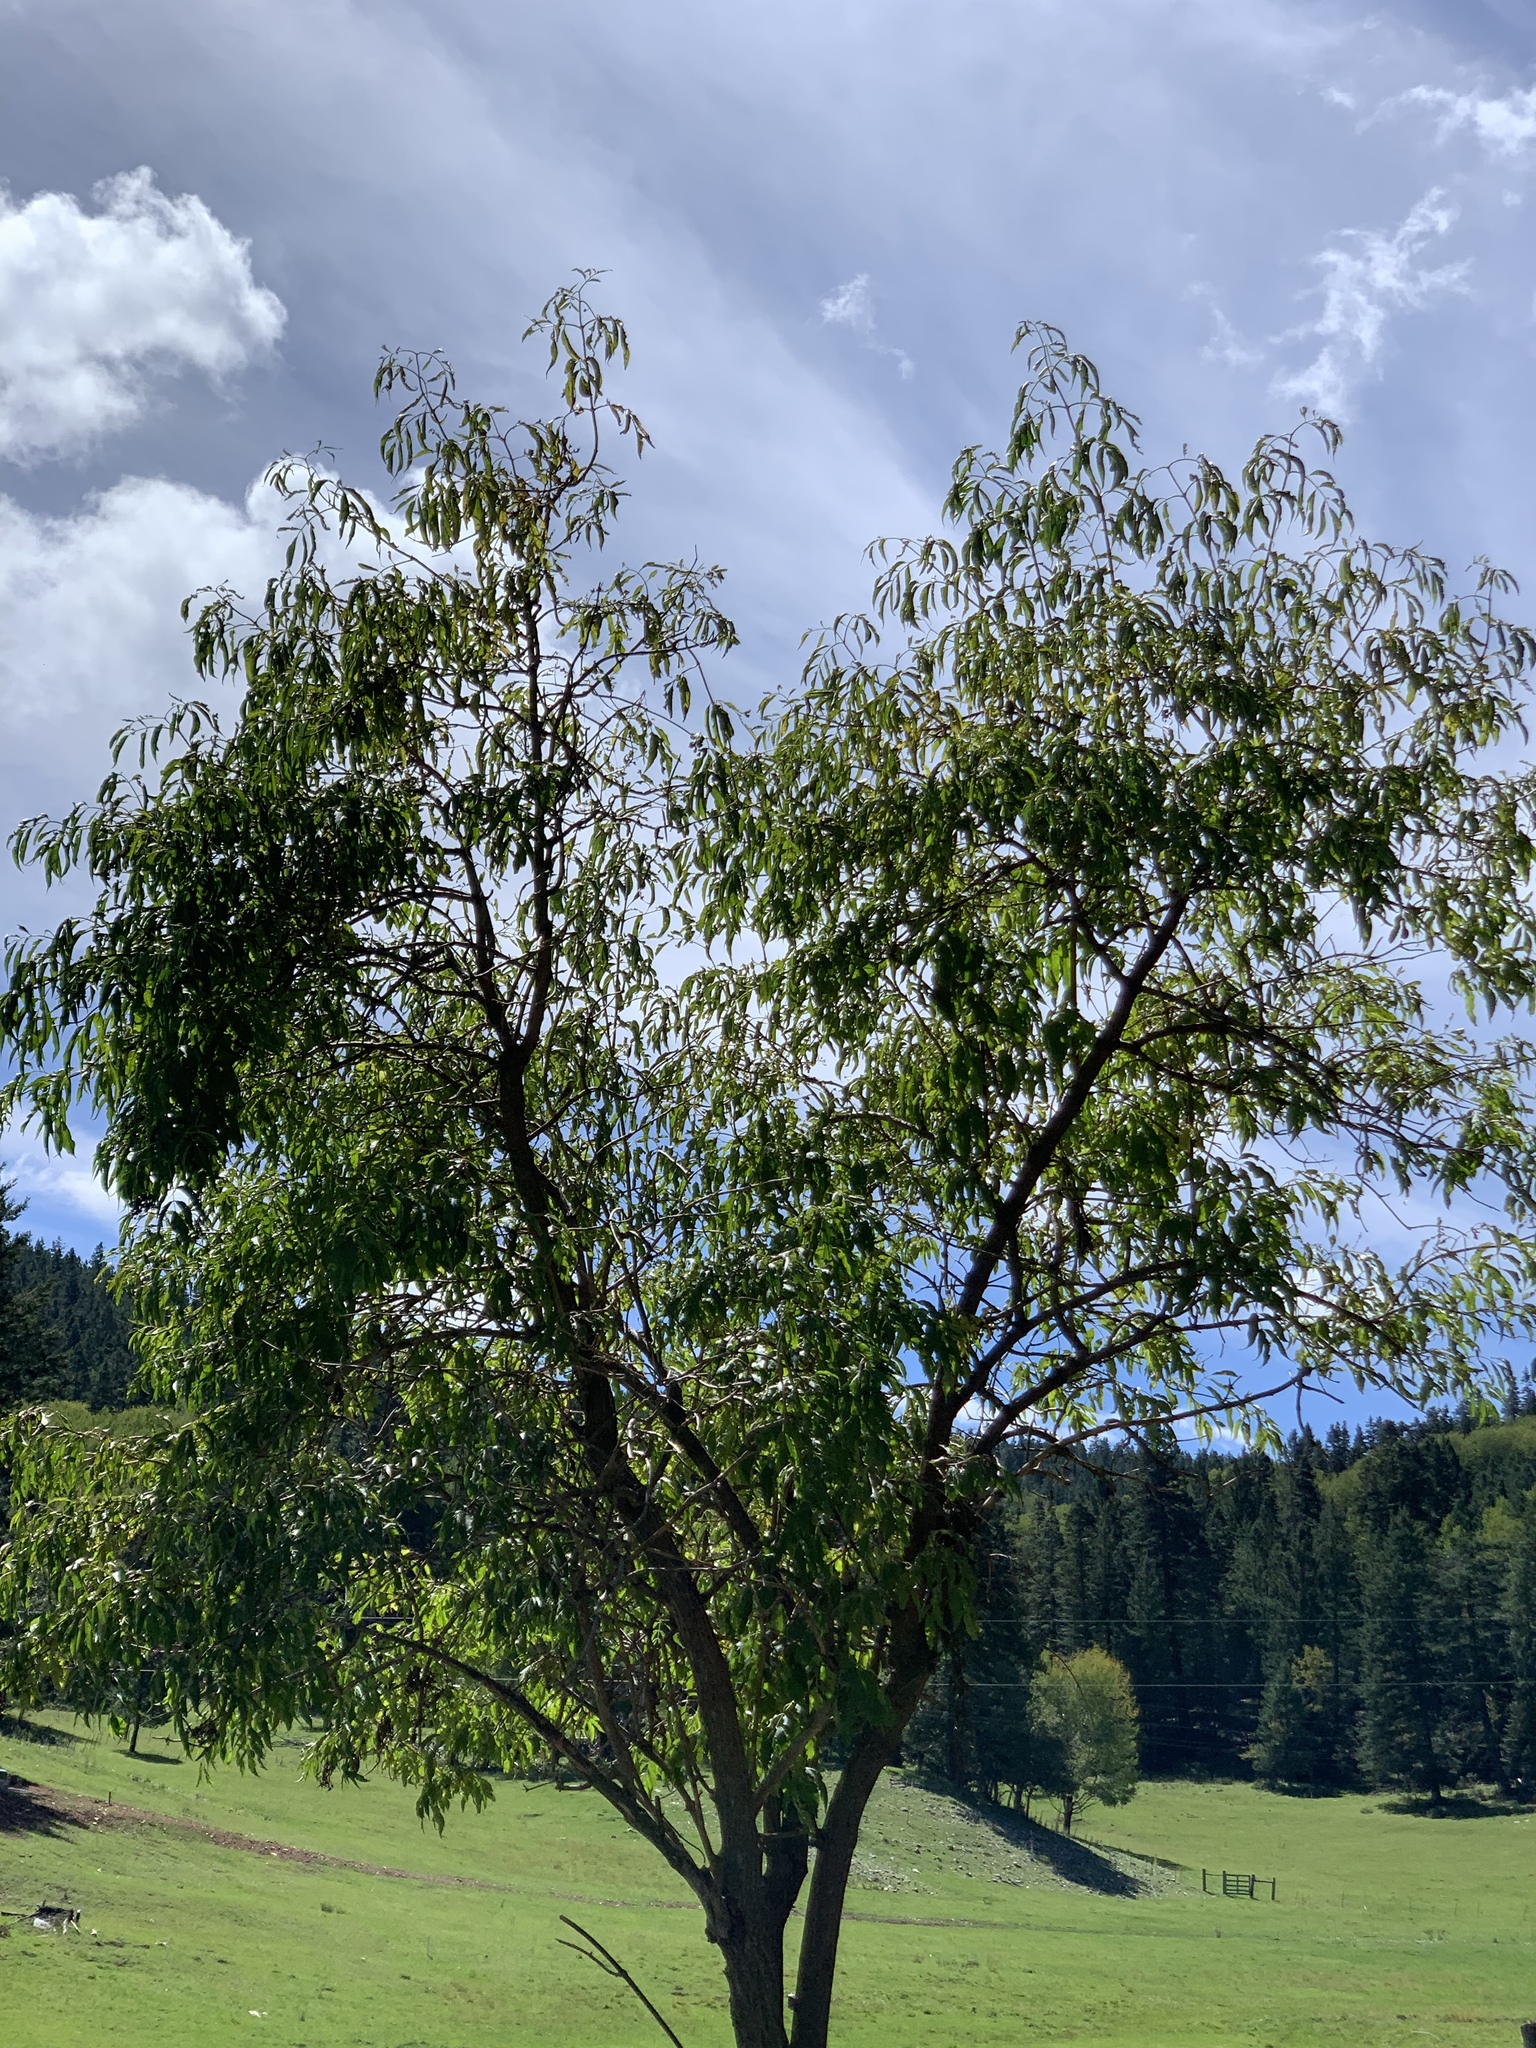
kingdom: Plantae
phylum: Tracheophyta
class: Magnoliopsida
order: Dipsacales
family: Viburnaceae
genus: Sambucus
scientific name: Sambucus cerulea
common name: Blue elder
